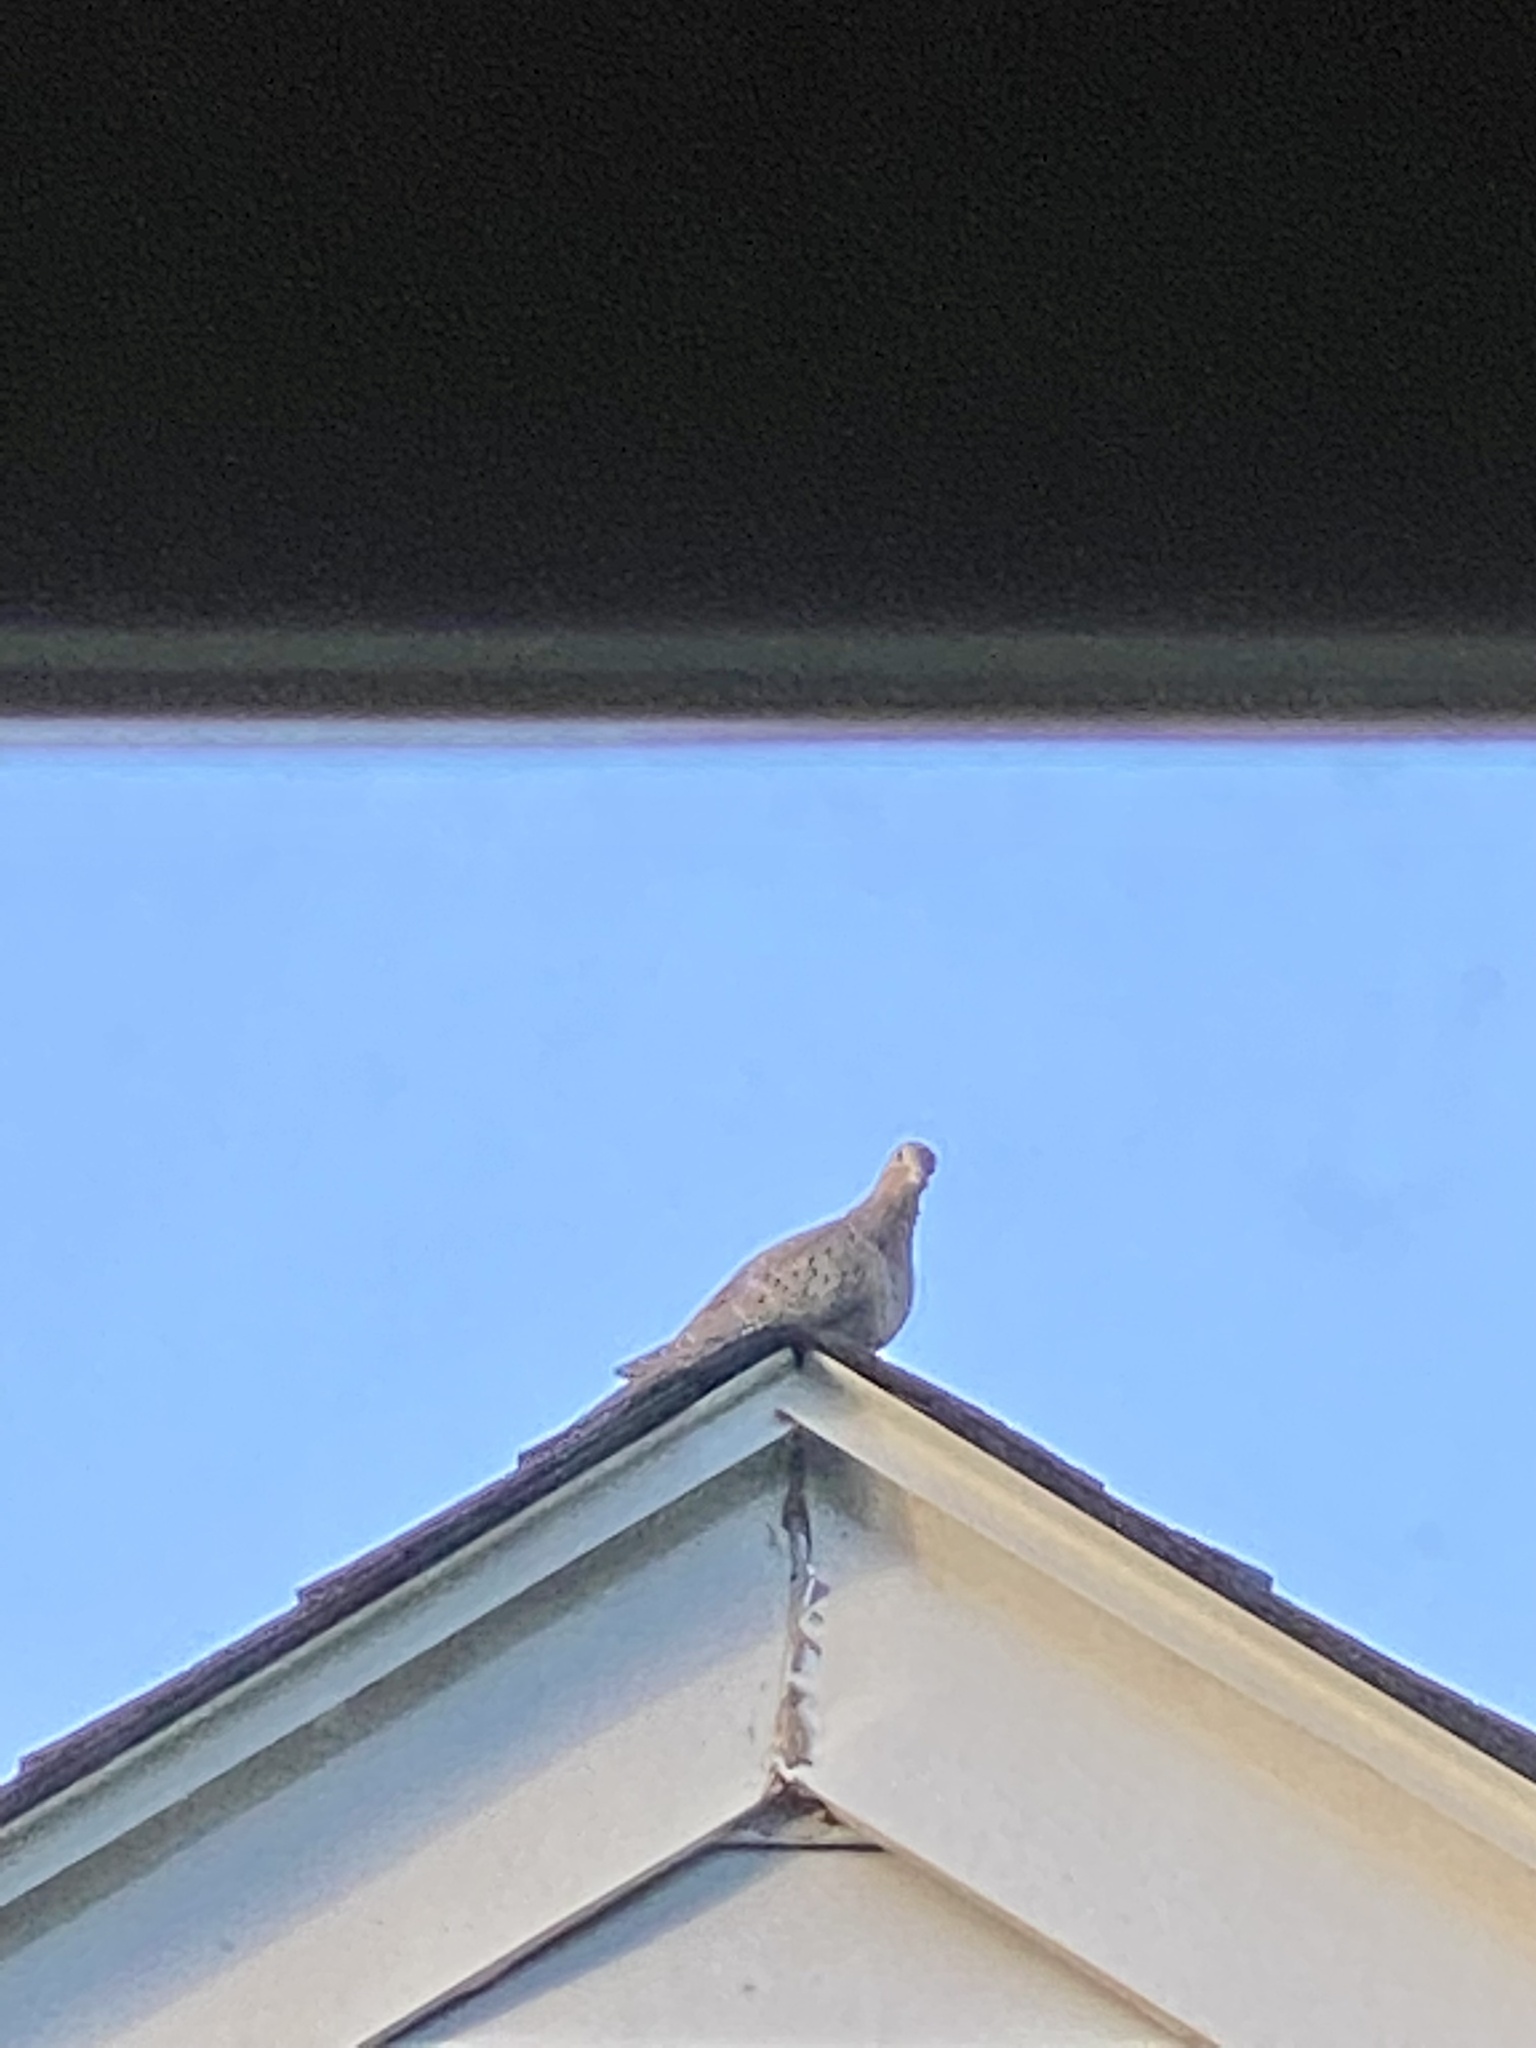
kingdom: Animalia
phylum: Chordata
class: Aves
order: Columbiformes
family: Columbidae
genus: Zenaida
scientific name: Zenaida macroura
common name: Mourning dove
